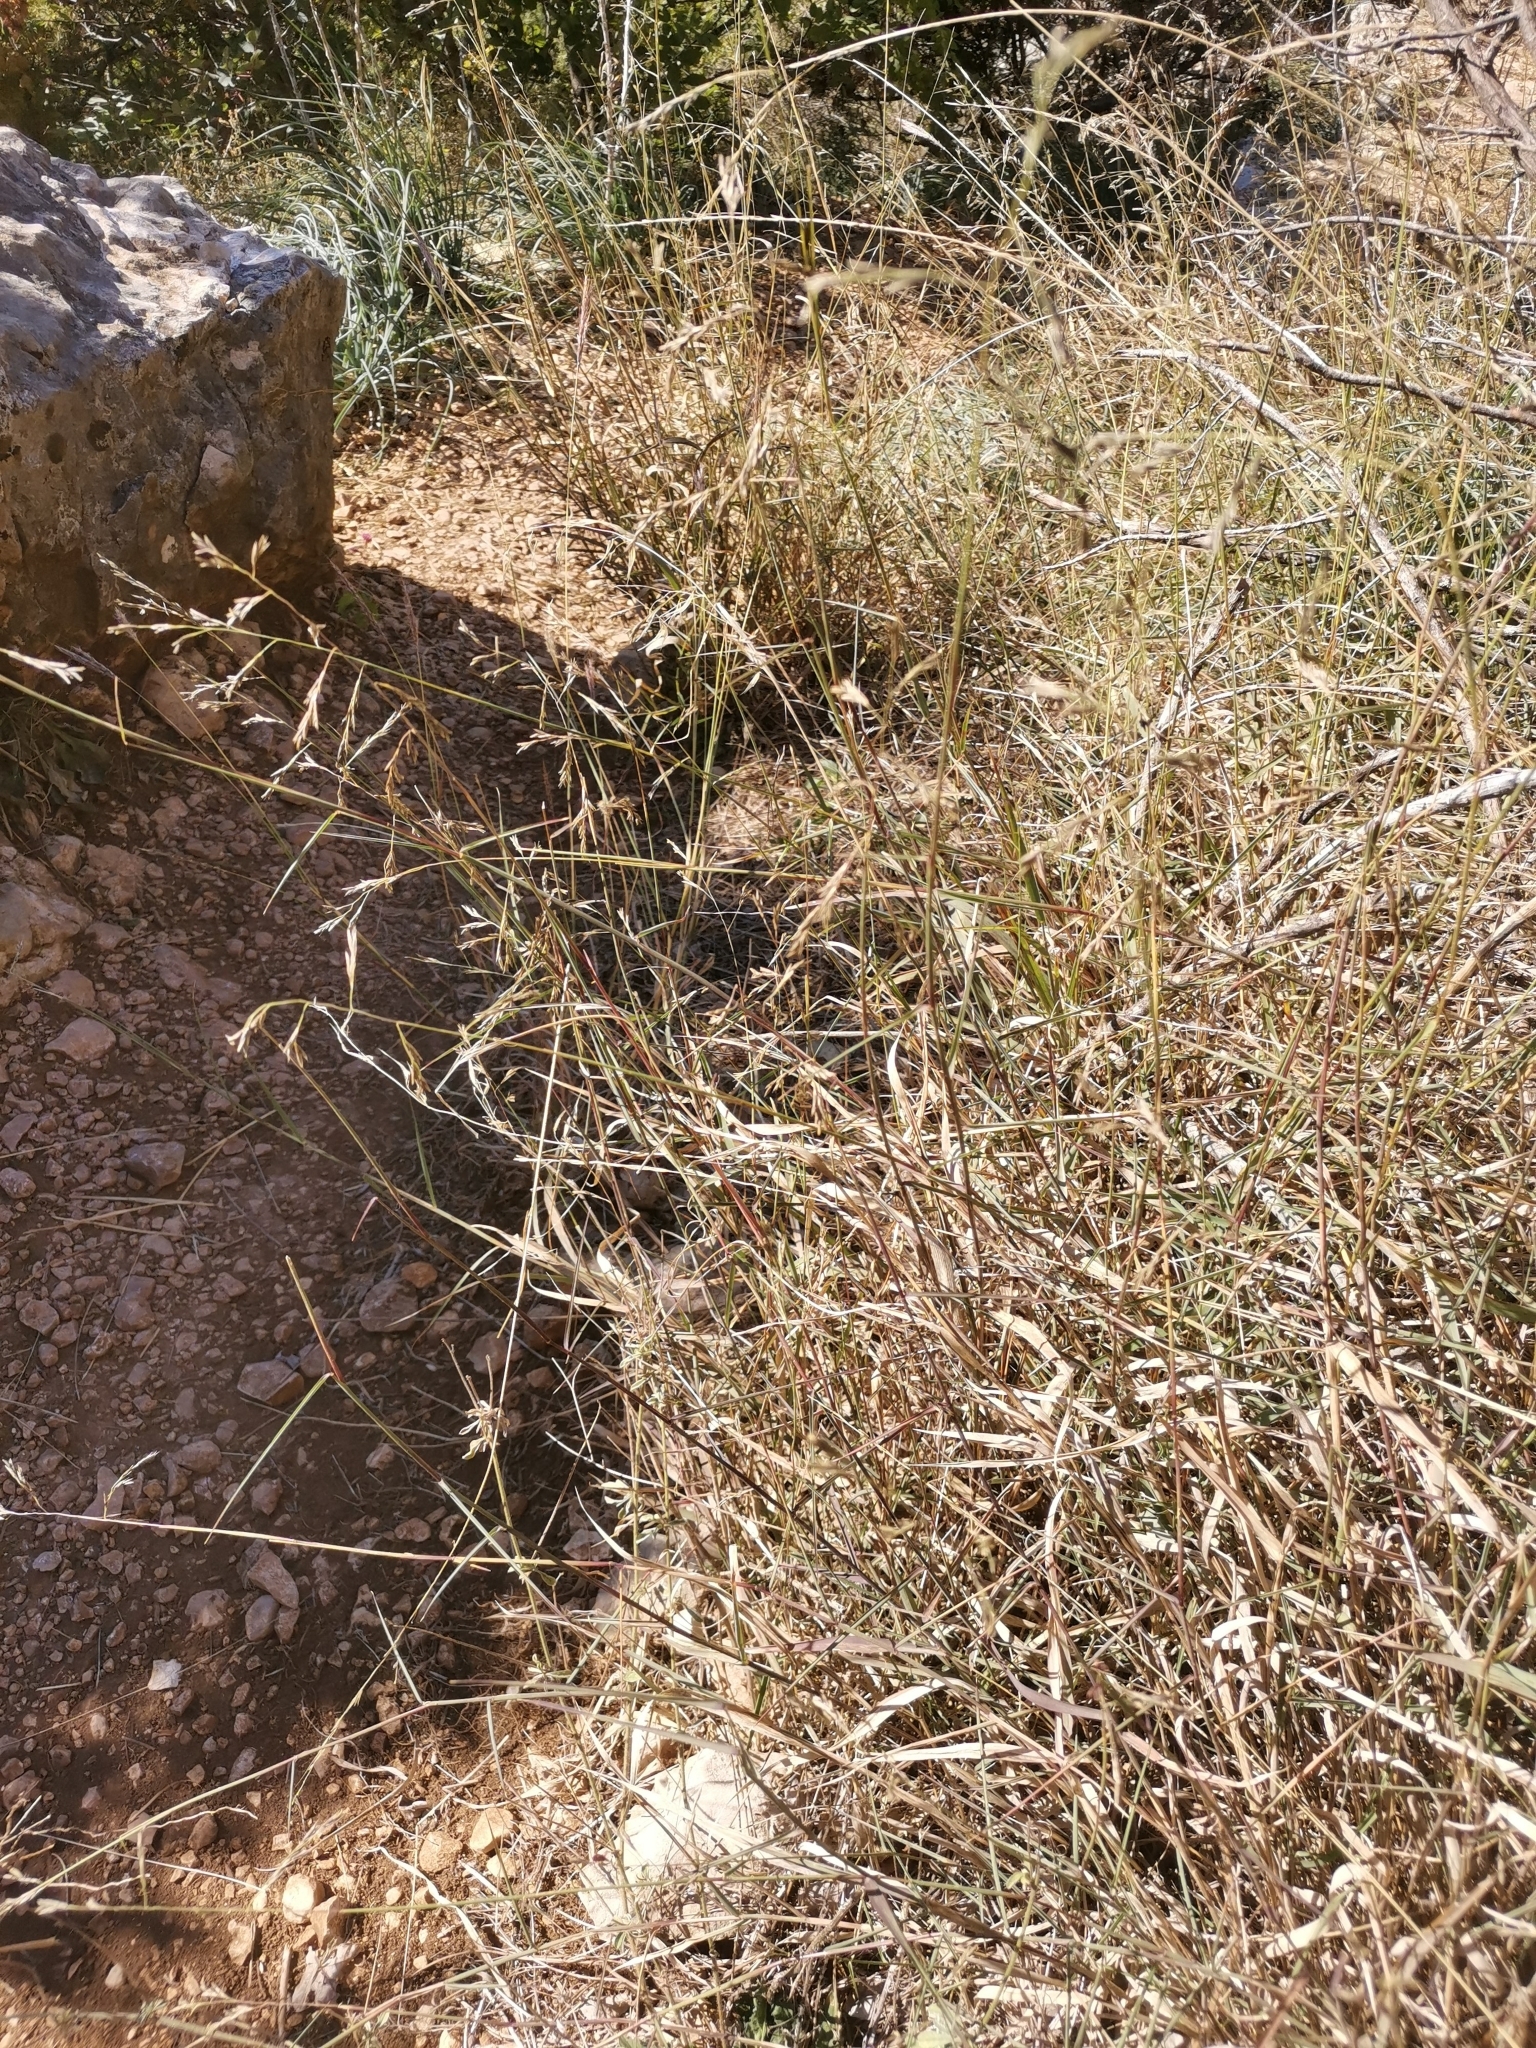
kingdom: Plantae
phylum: Tracheophyta
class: Liliopsida
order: Poales
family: Poaceae
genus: Cleistogenes
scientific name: Cleistogenes serotina
